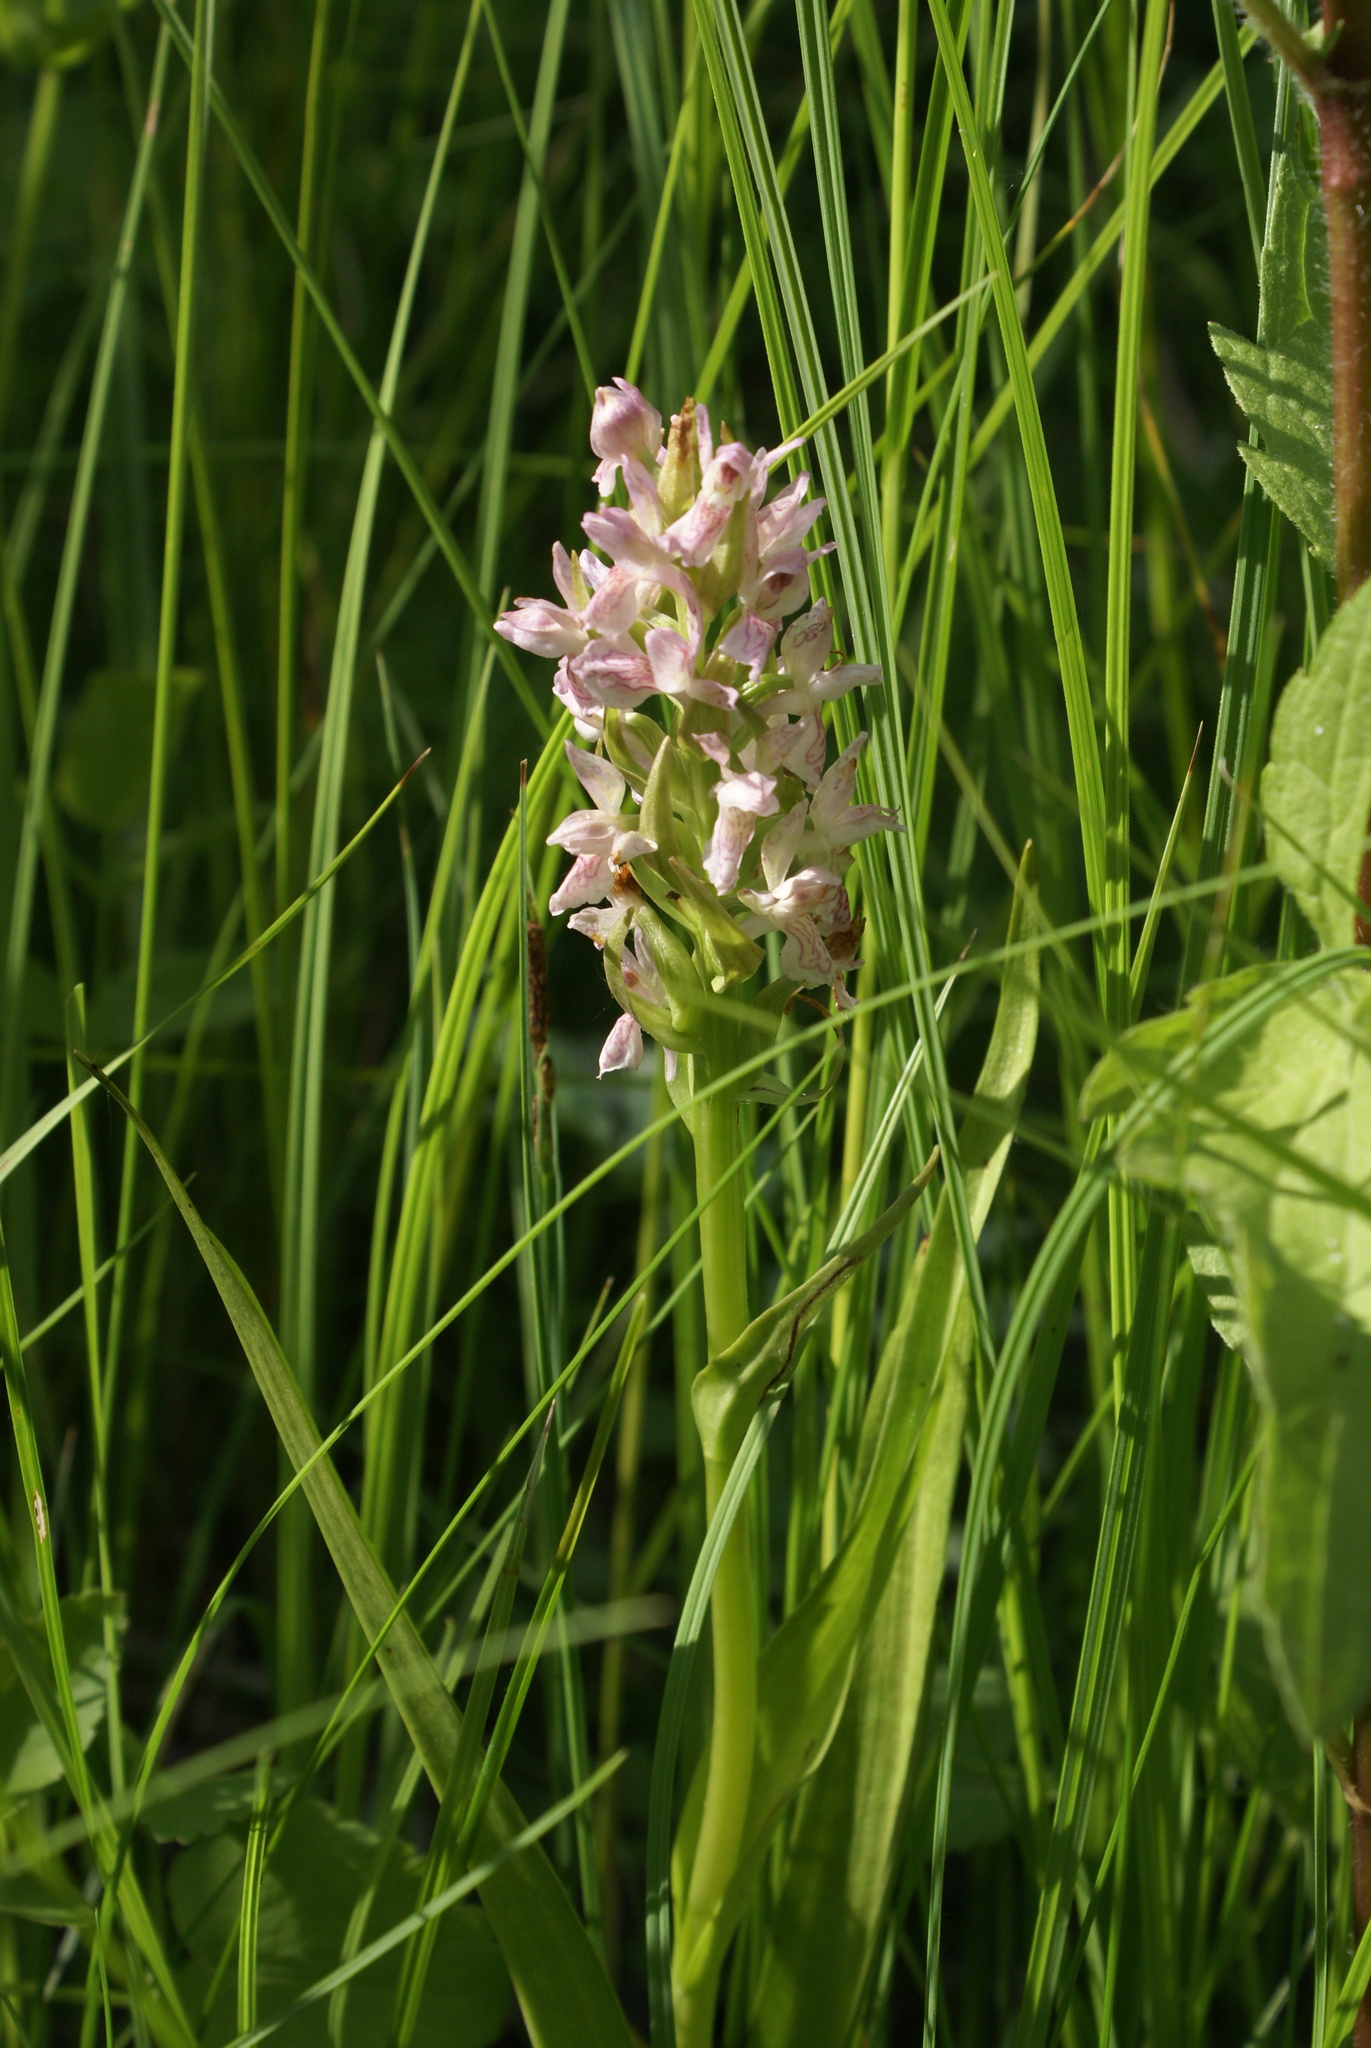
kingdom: Plantae
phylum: Tracheophyta
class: Liliopsida
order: Asparagales
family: Orchidaceae
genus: Dactylorhiza
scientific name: Dactylorhiza incarnata
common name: Early marsh-orchid
